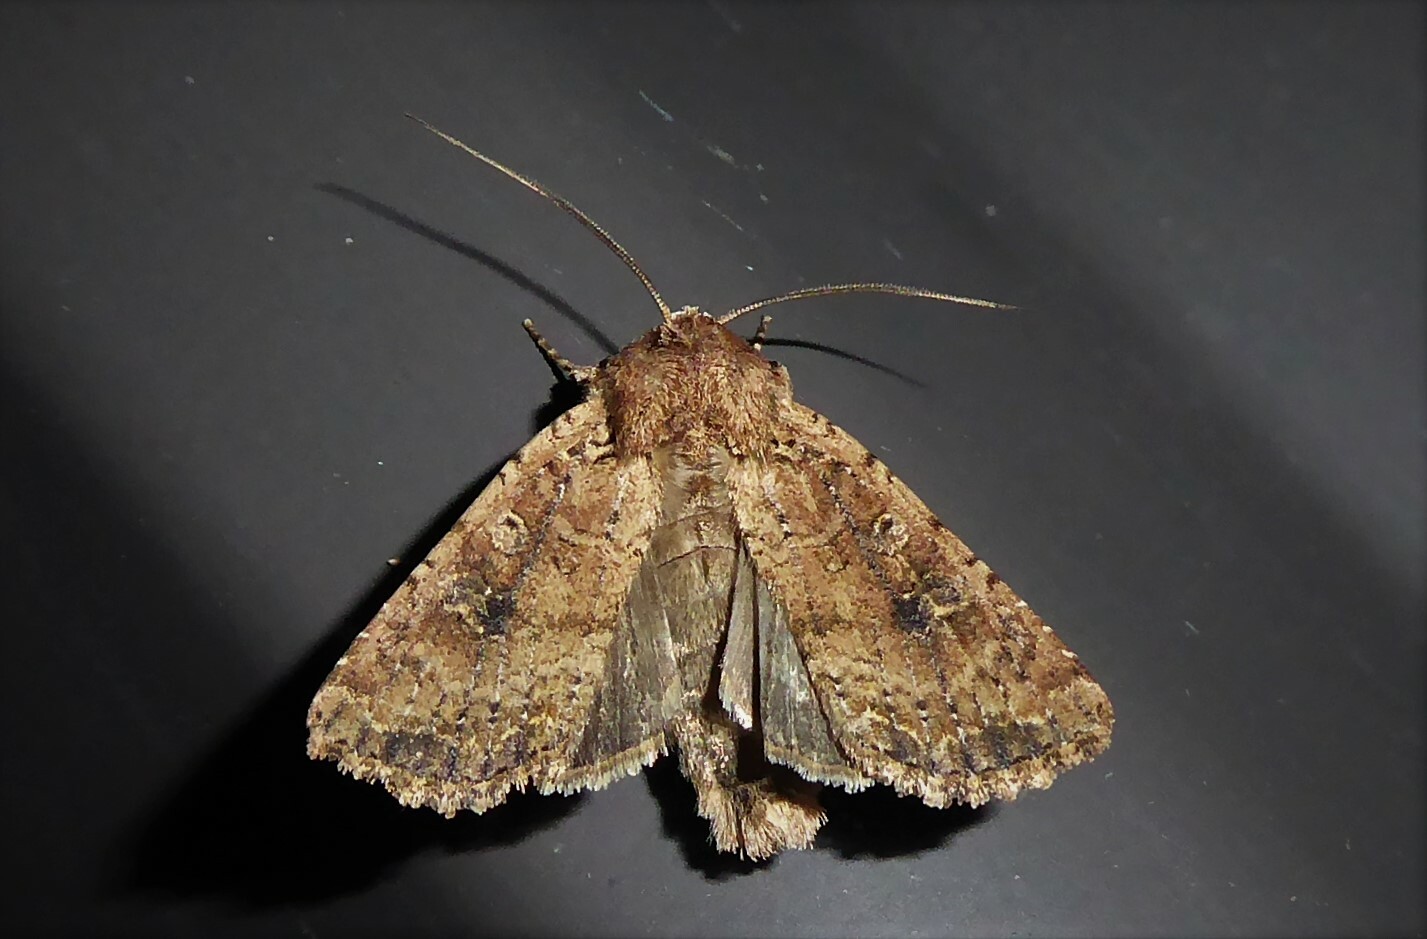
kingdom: Animalia
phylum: Arthropoda
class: Insecta
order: Lepidoptera
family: Noctuidae
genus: Ichneutica
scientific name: Ichneutica morosa
